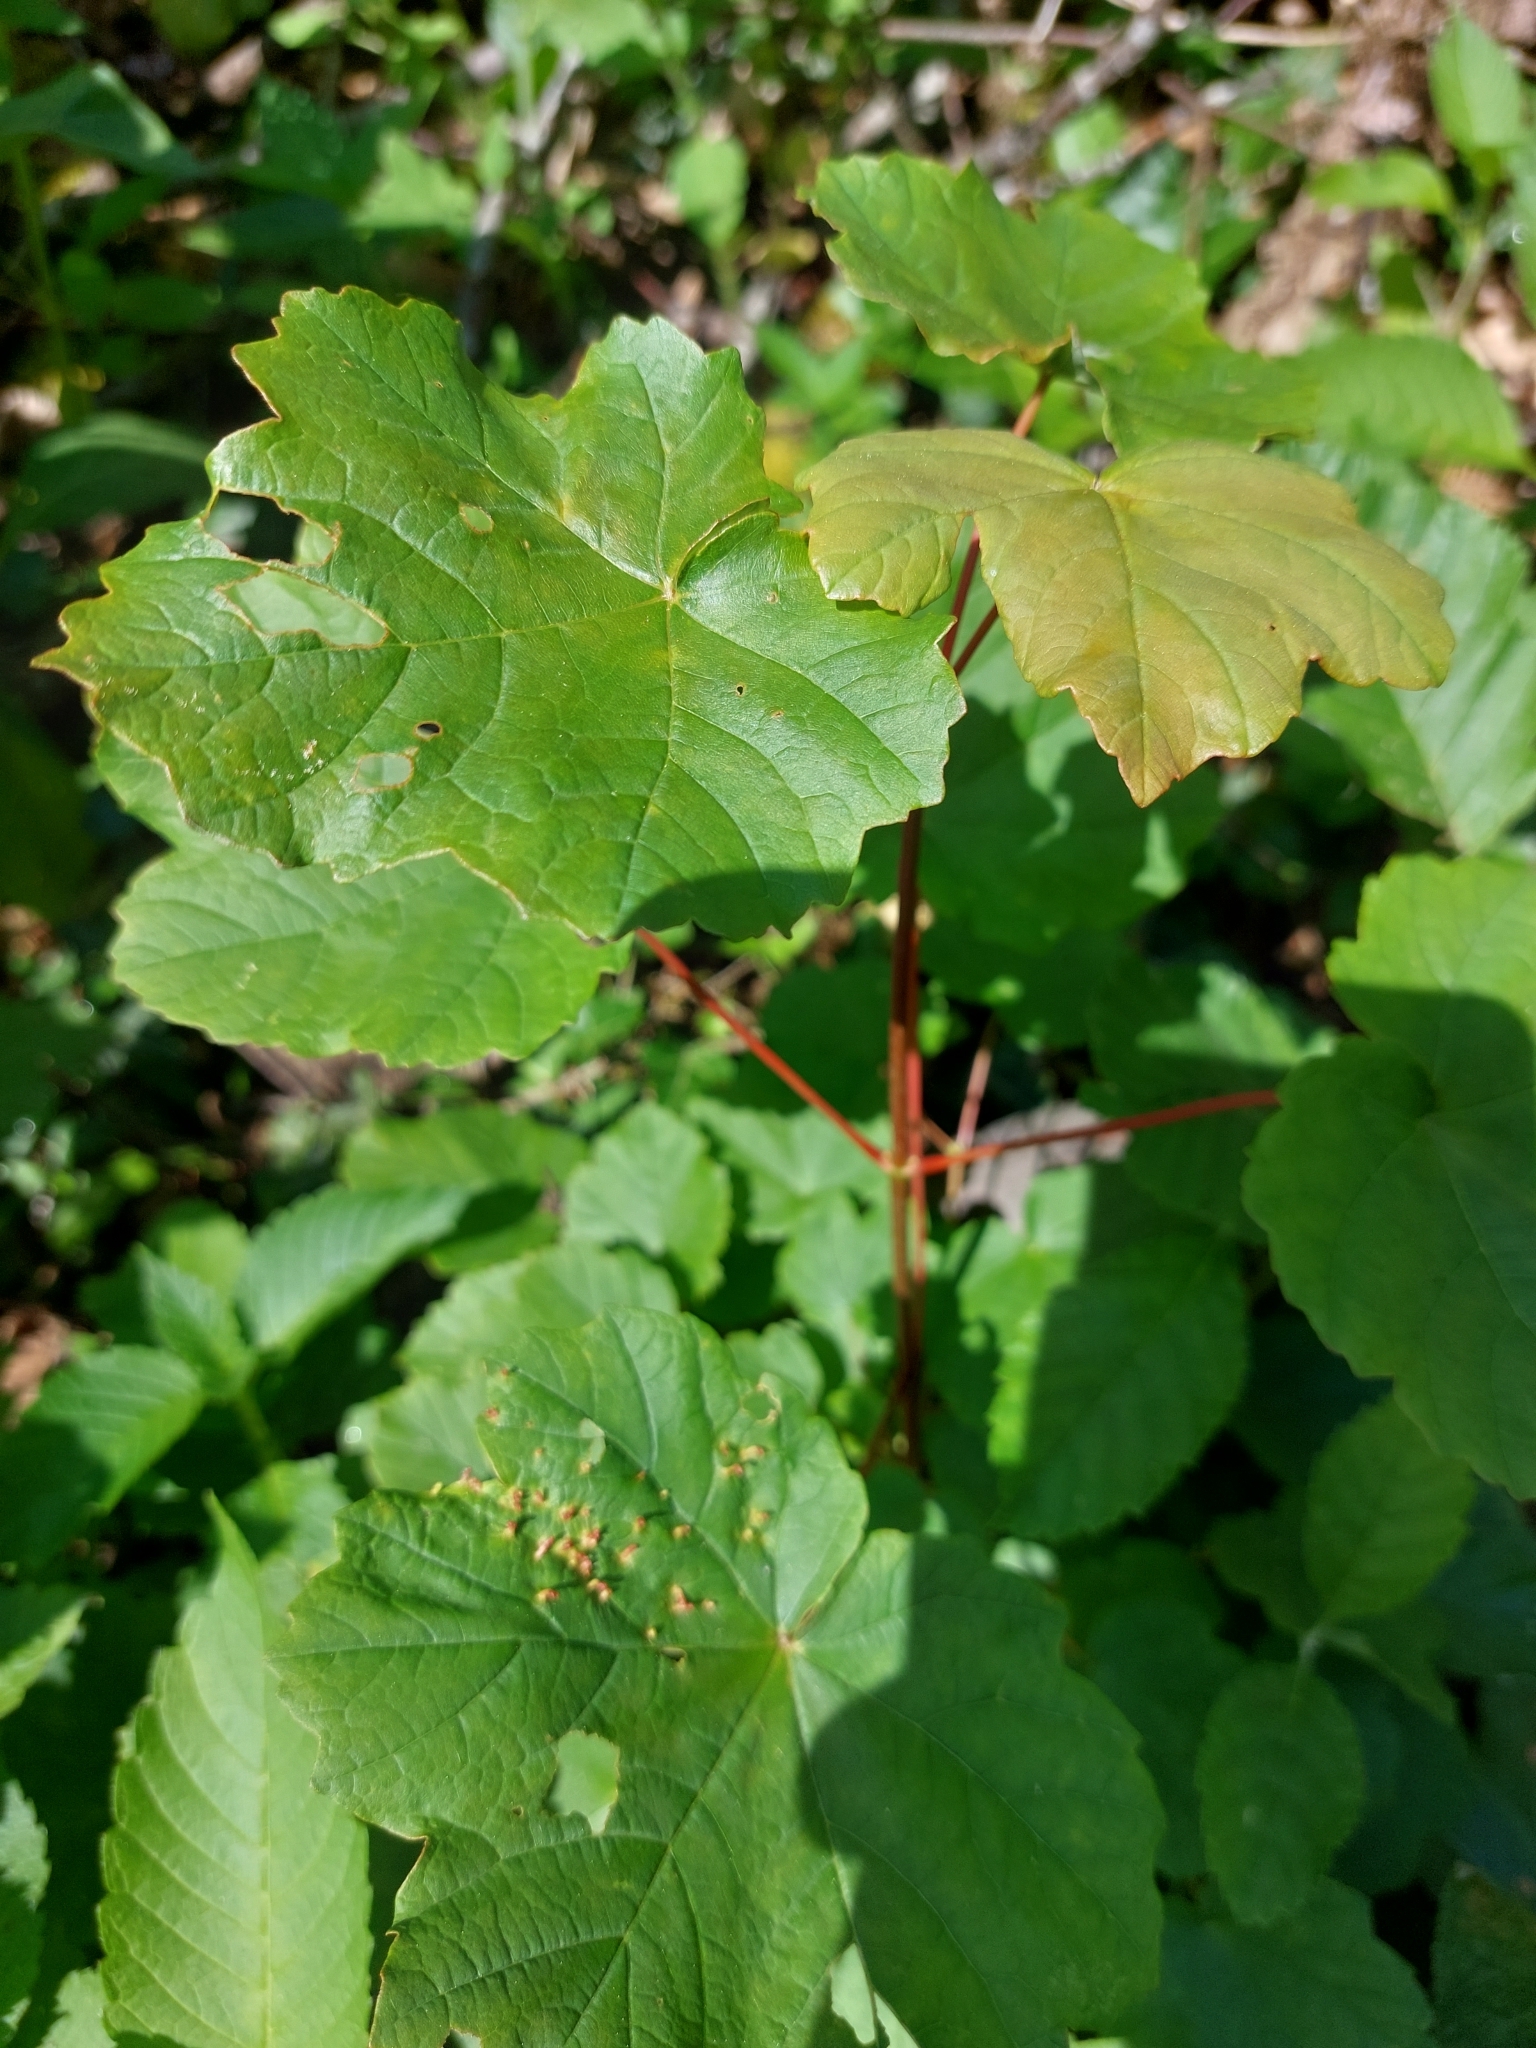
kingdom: Plantae
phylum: Tracheophyta
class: Magnoliopsida
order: Sapindales
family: Sapindaceae
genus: Acer
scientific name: Acer pseudoplatanus
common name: Sycamore
